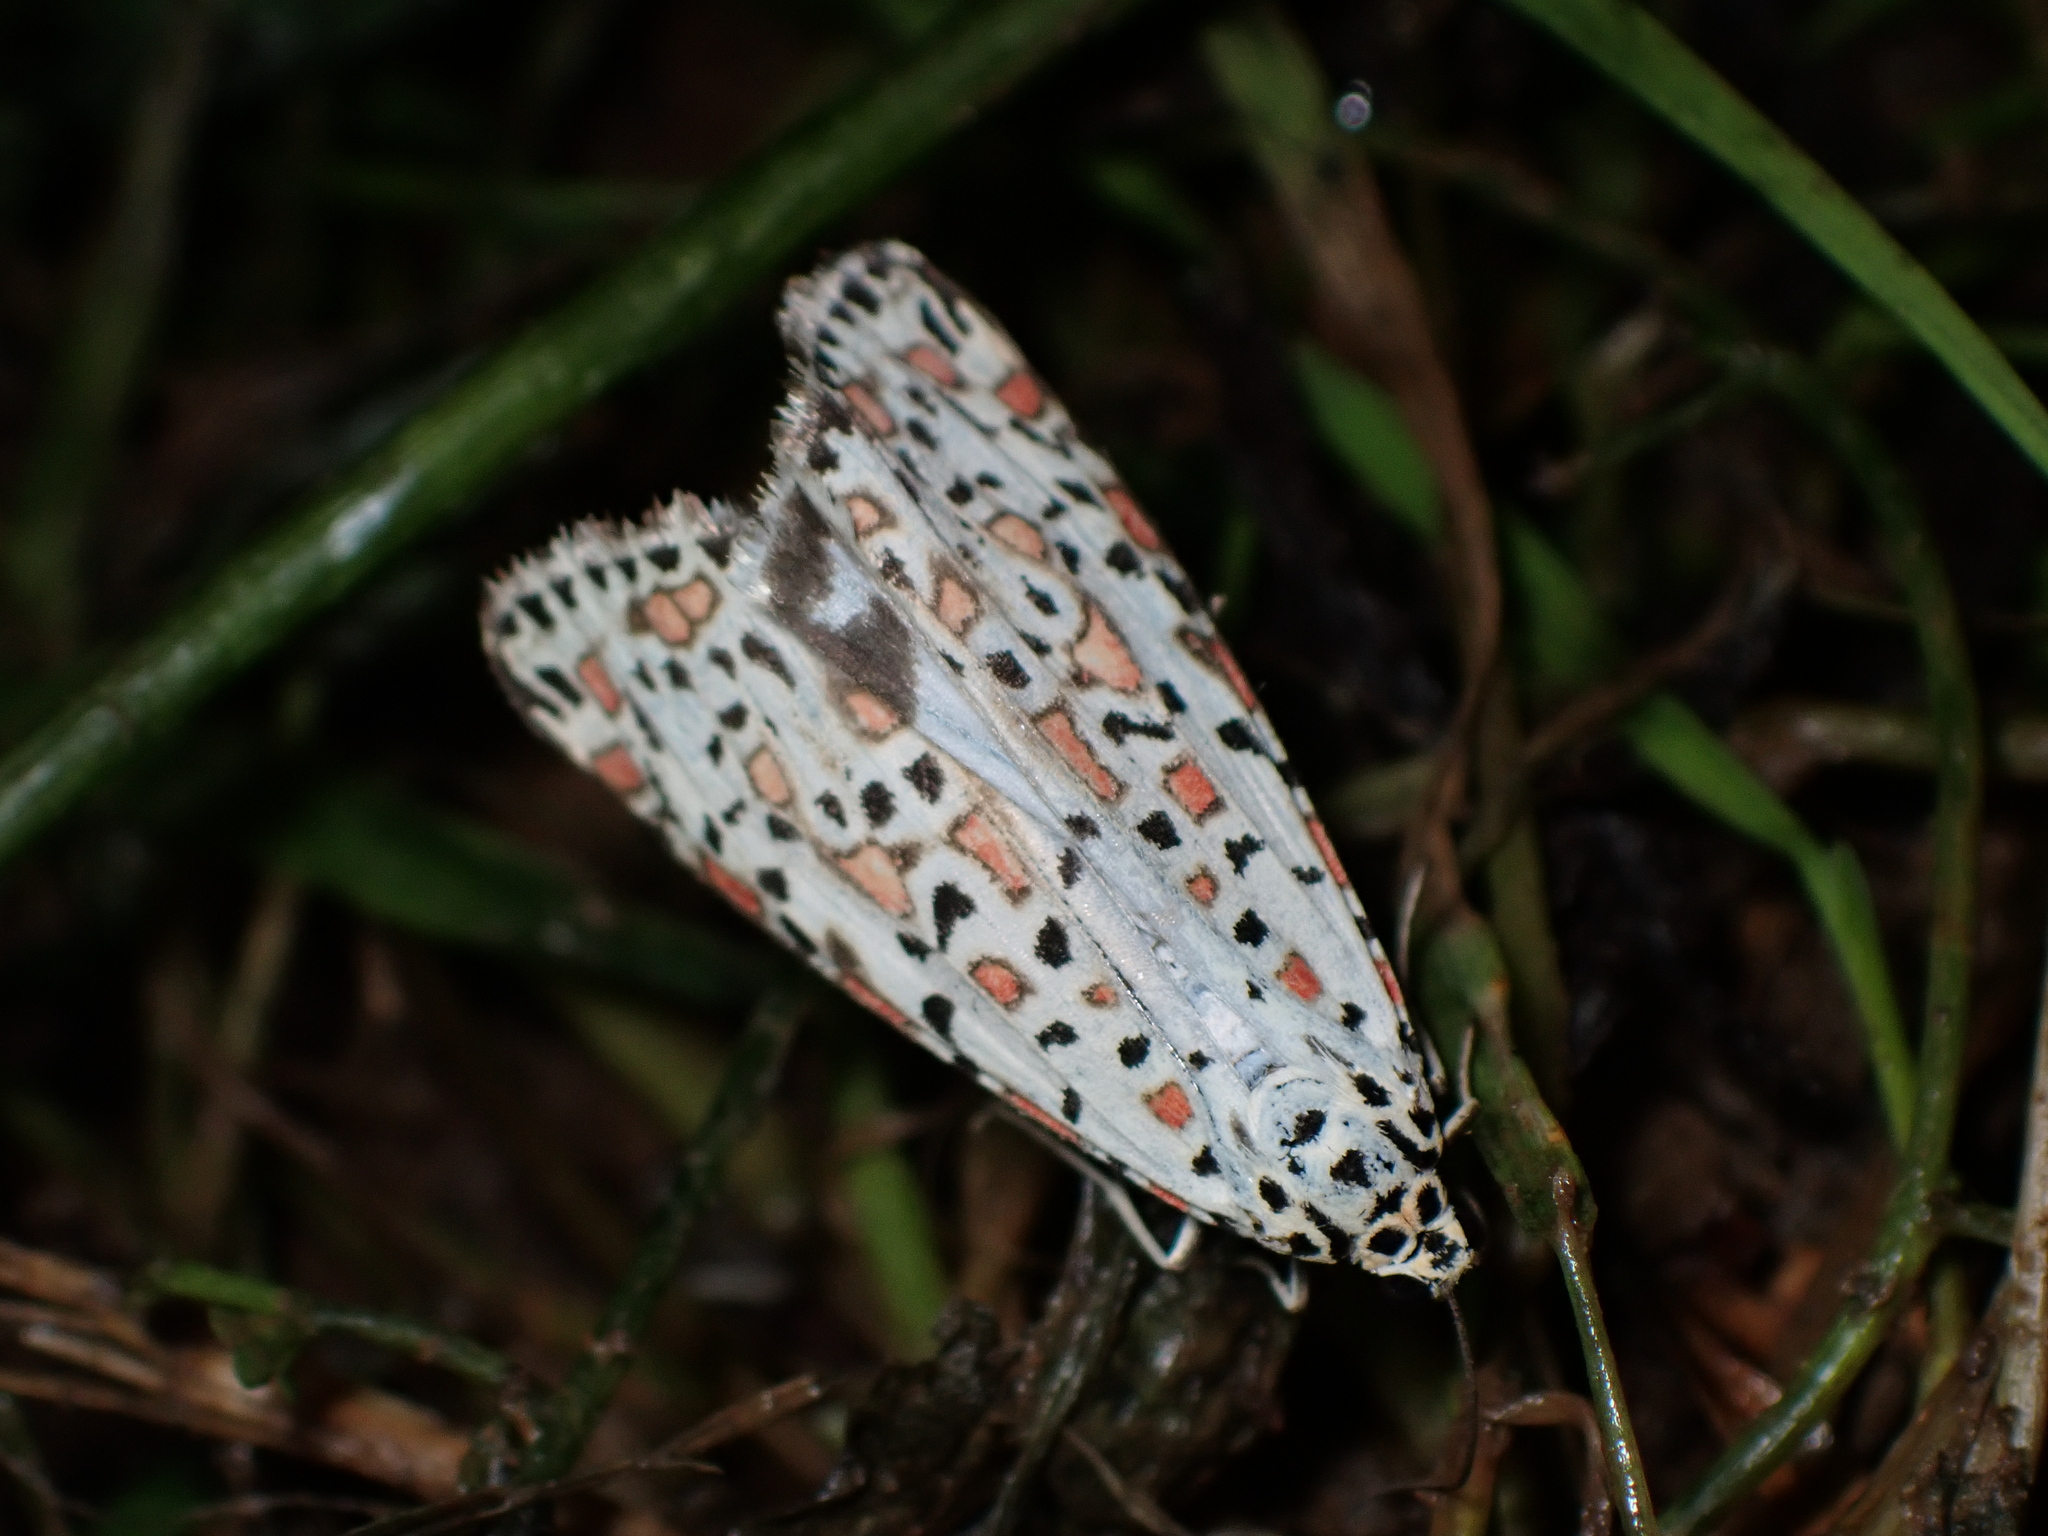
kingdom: Animalia
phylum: Arthropoda
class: Insecta
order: Lepidoptera
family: Erebidae
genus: Utetheisa
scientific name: Utetheisa pulchelloides
